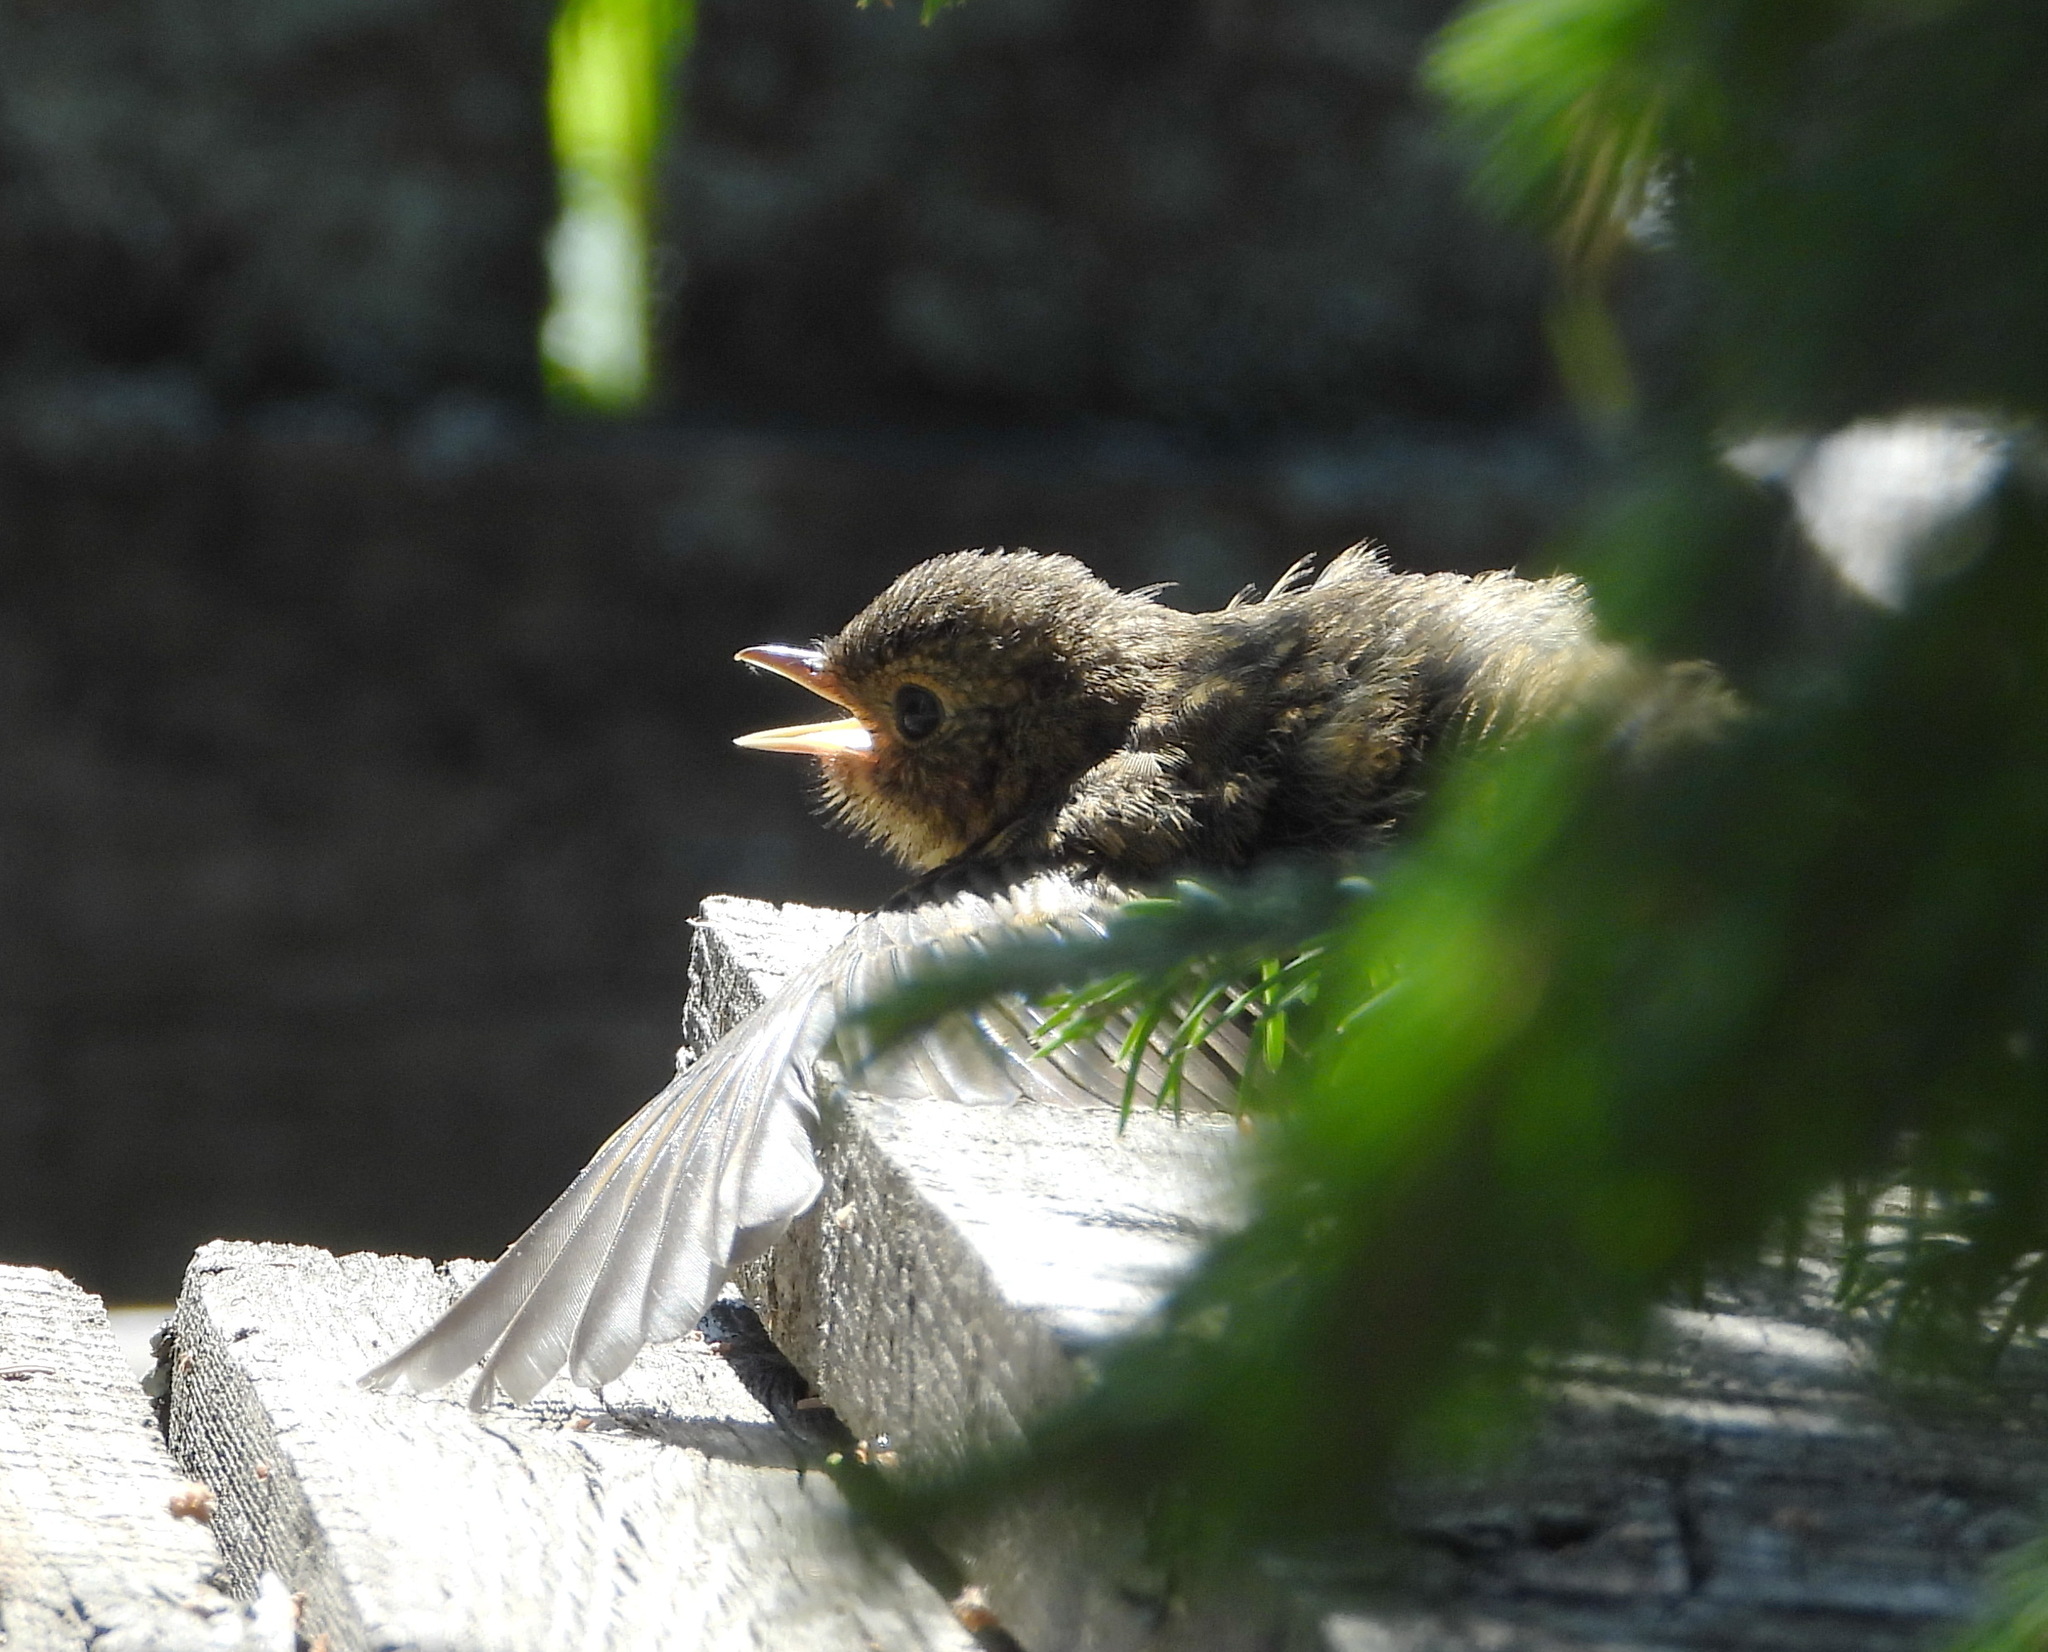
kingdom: Animalia
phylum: Chordata
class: Aves
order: Passeriformes
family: Muscicapidae
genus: Erithacus
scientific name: Erithacus rubecula
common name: European robin
